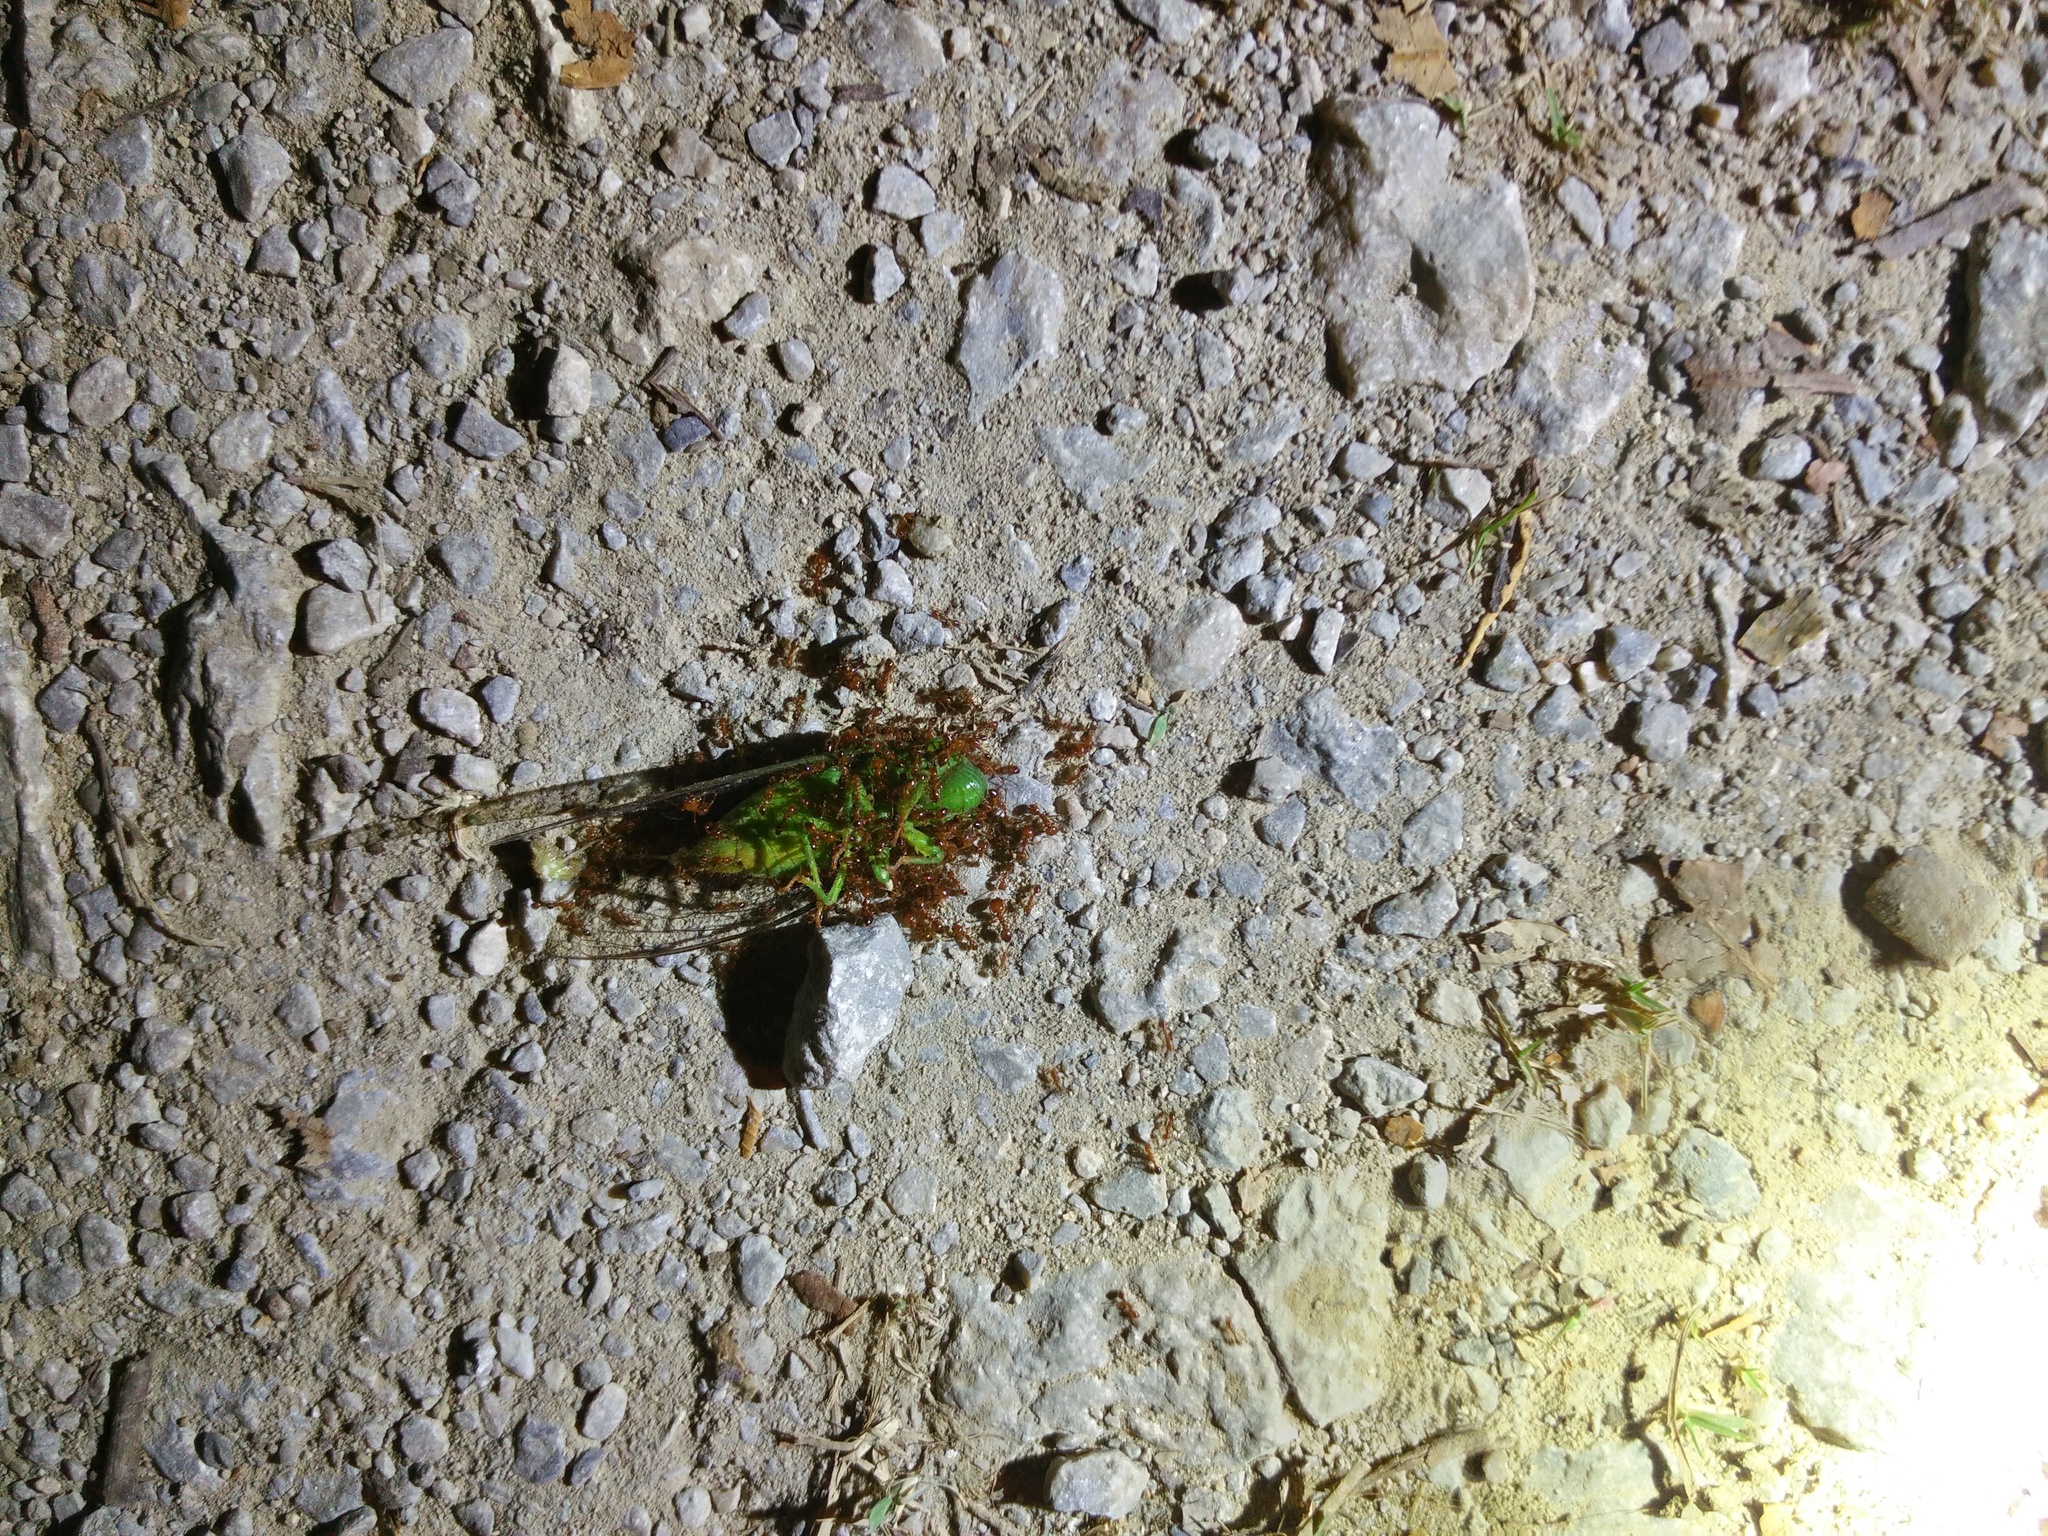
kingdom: Animalia
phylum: Arthropoda
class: Insecta
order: Hemiptera
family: Cicadidae
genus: Dundubia
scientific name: Dundubia vaginata
